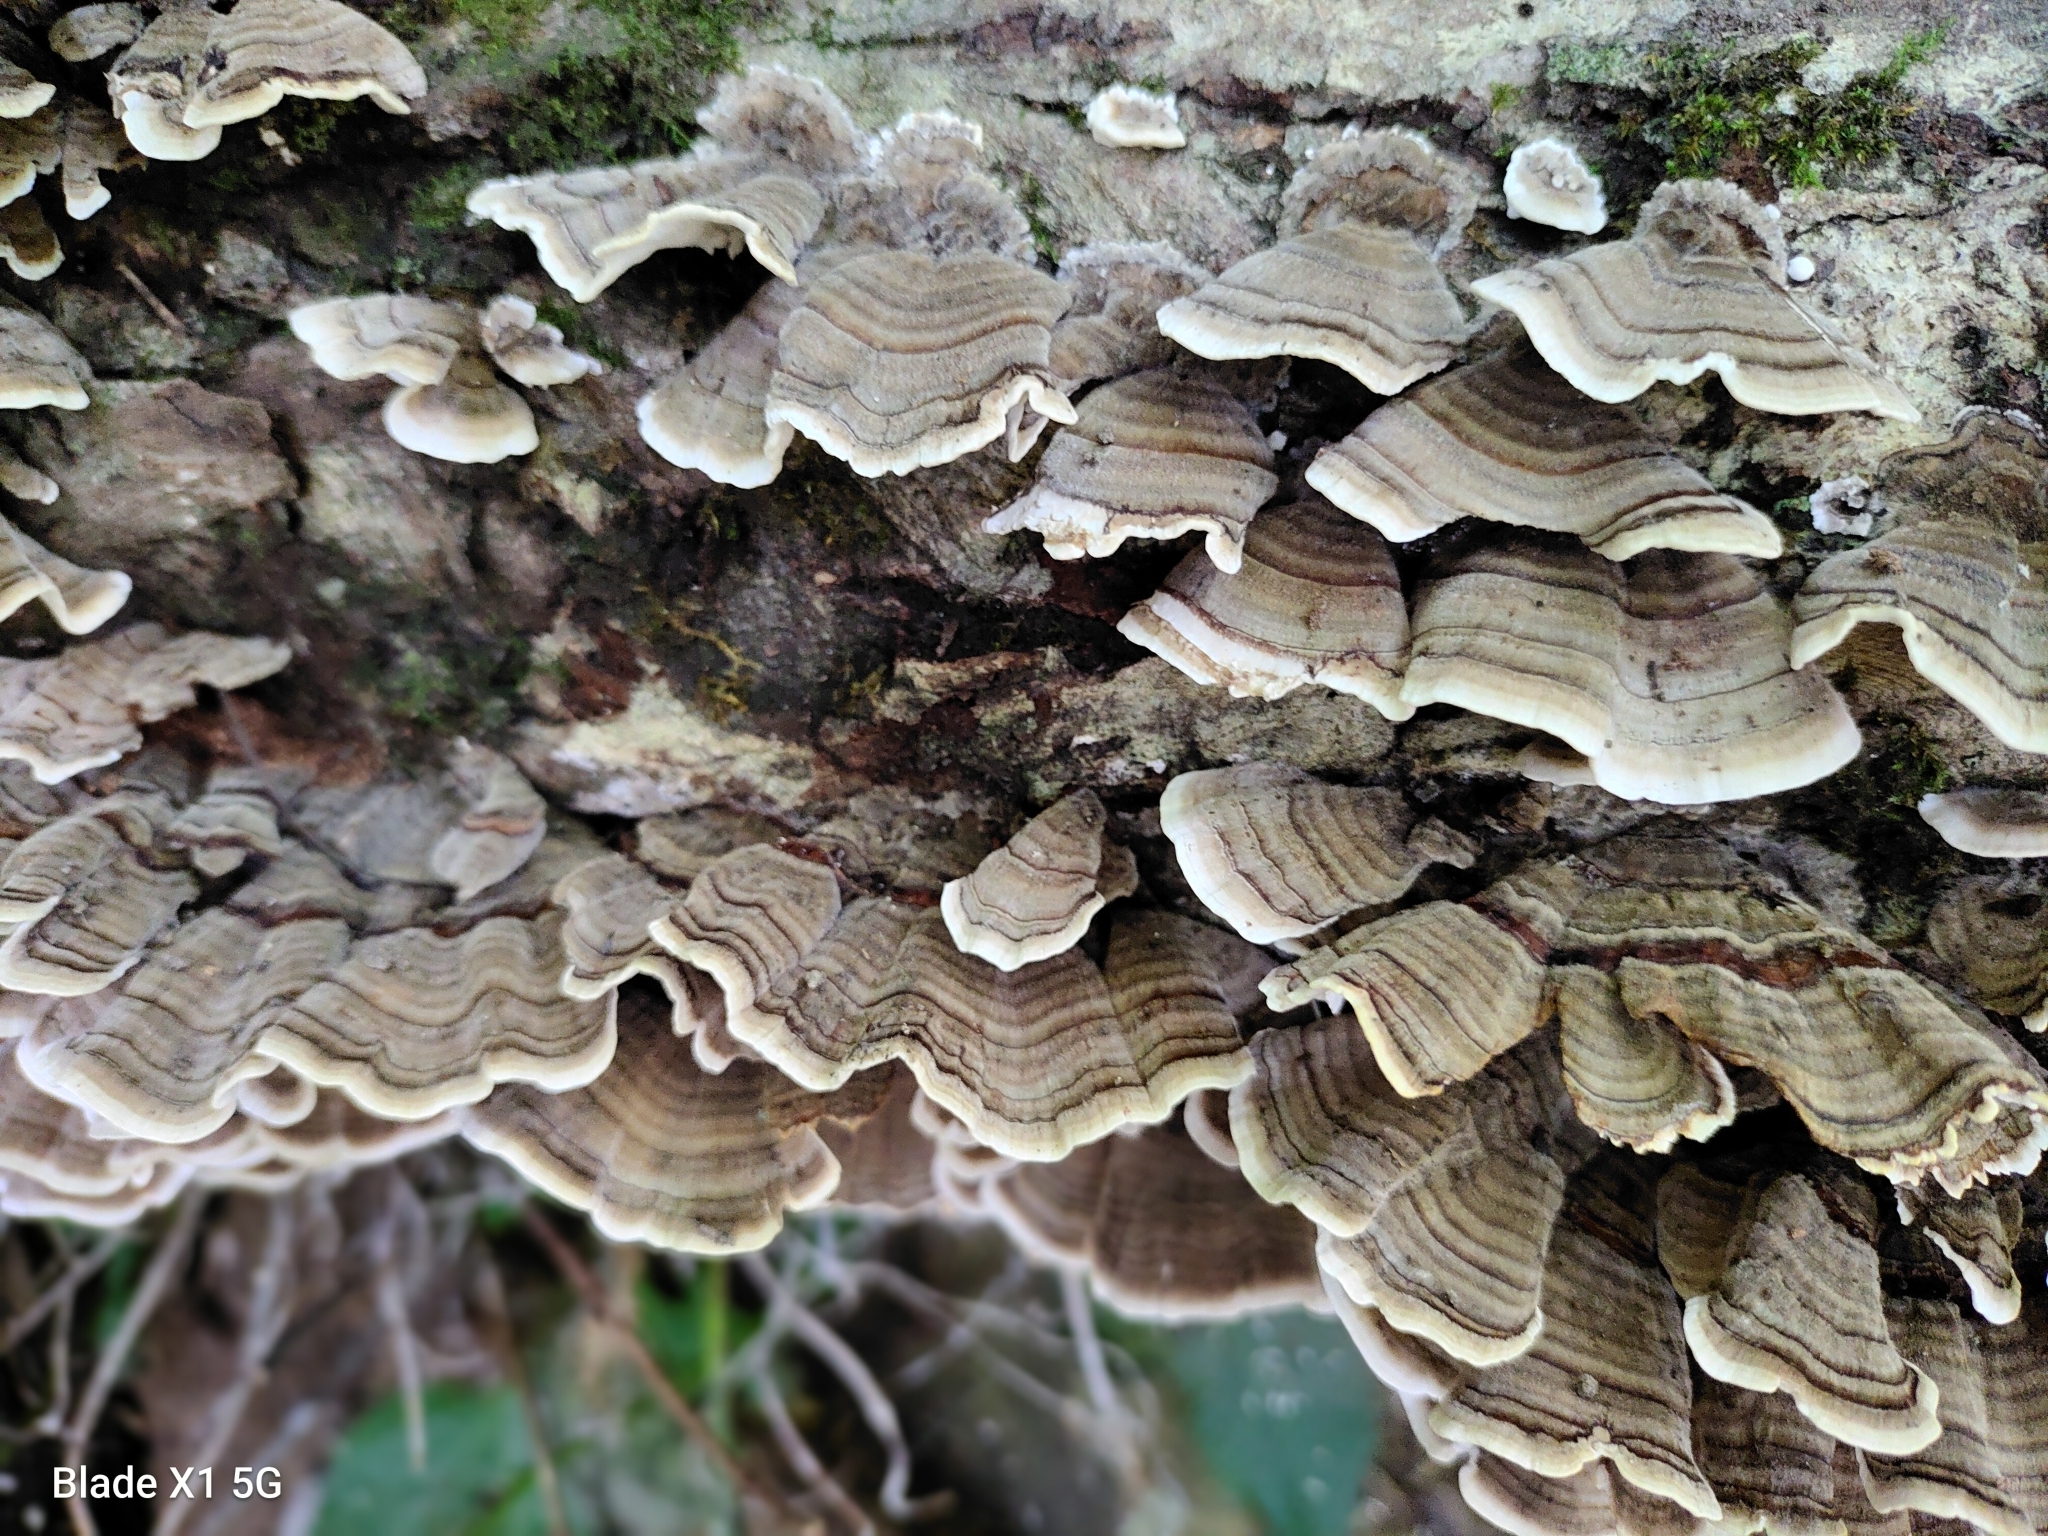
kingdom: Fungi
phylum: Basidiomycota
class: Agaricomycetes
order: Polyporales
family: Polyporaceae
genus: Trametes
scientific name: Trametes versicolor
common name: Turkeytail
